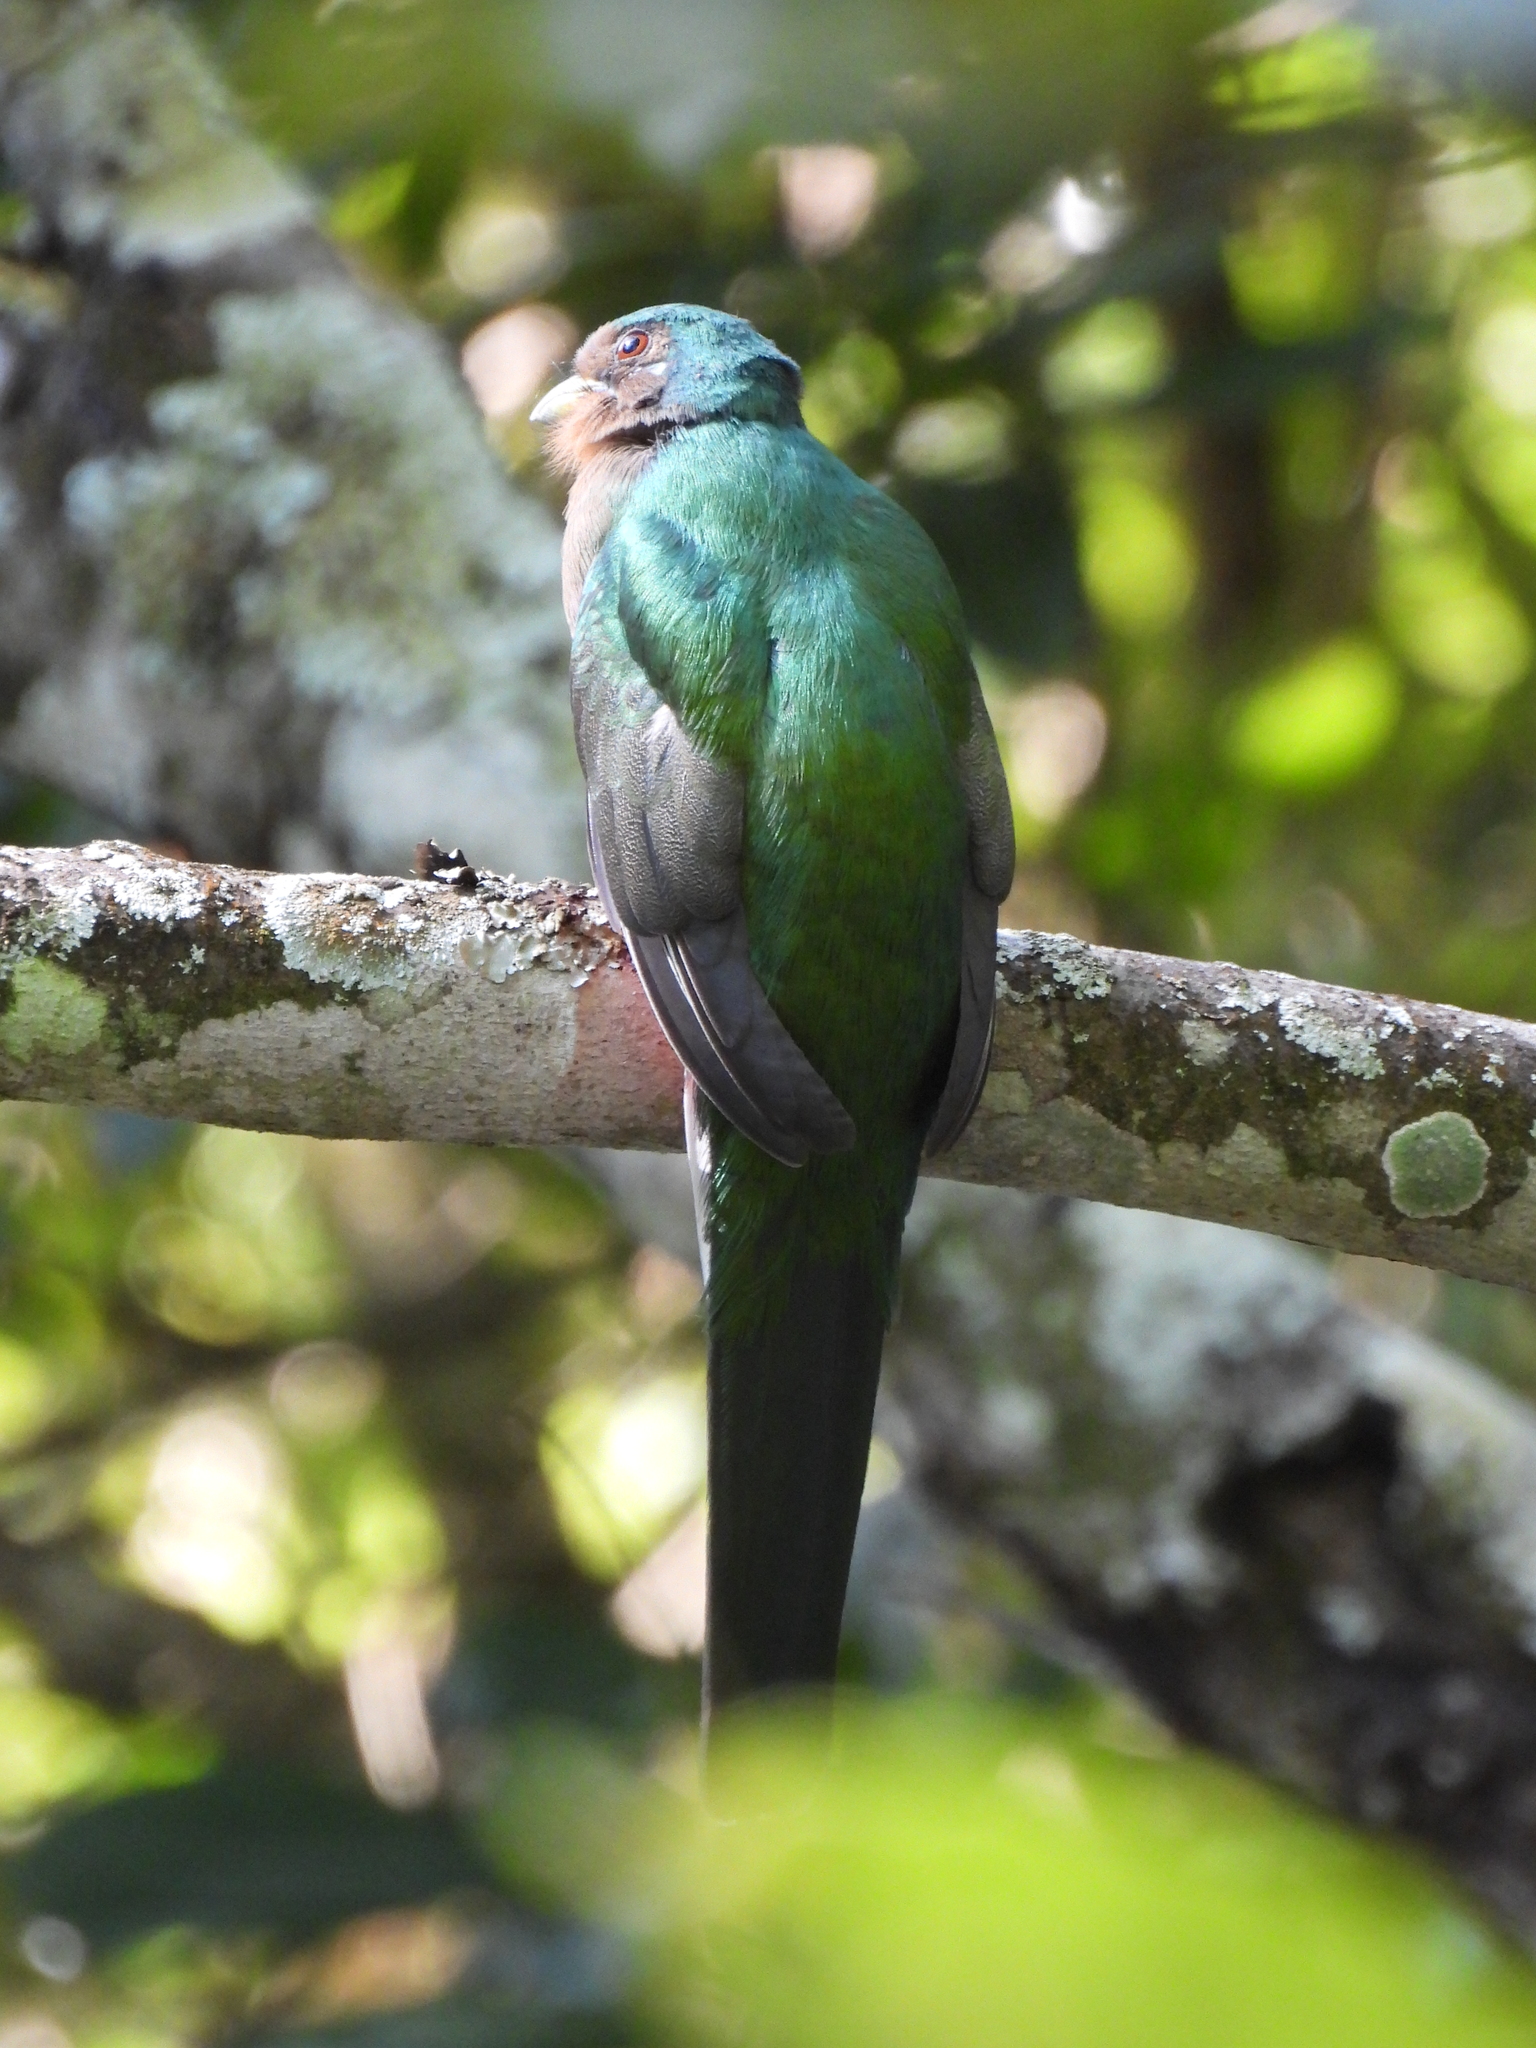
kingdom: Animalia
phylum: Chordata
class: Aves
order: Trogoniformes
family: Trogonidae
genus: Apaloderma
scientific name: Apaloderma narina
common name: Narina trogon
